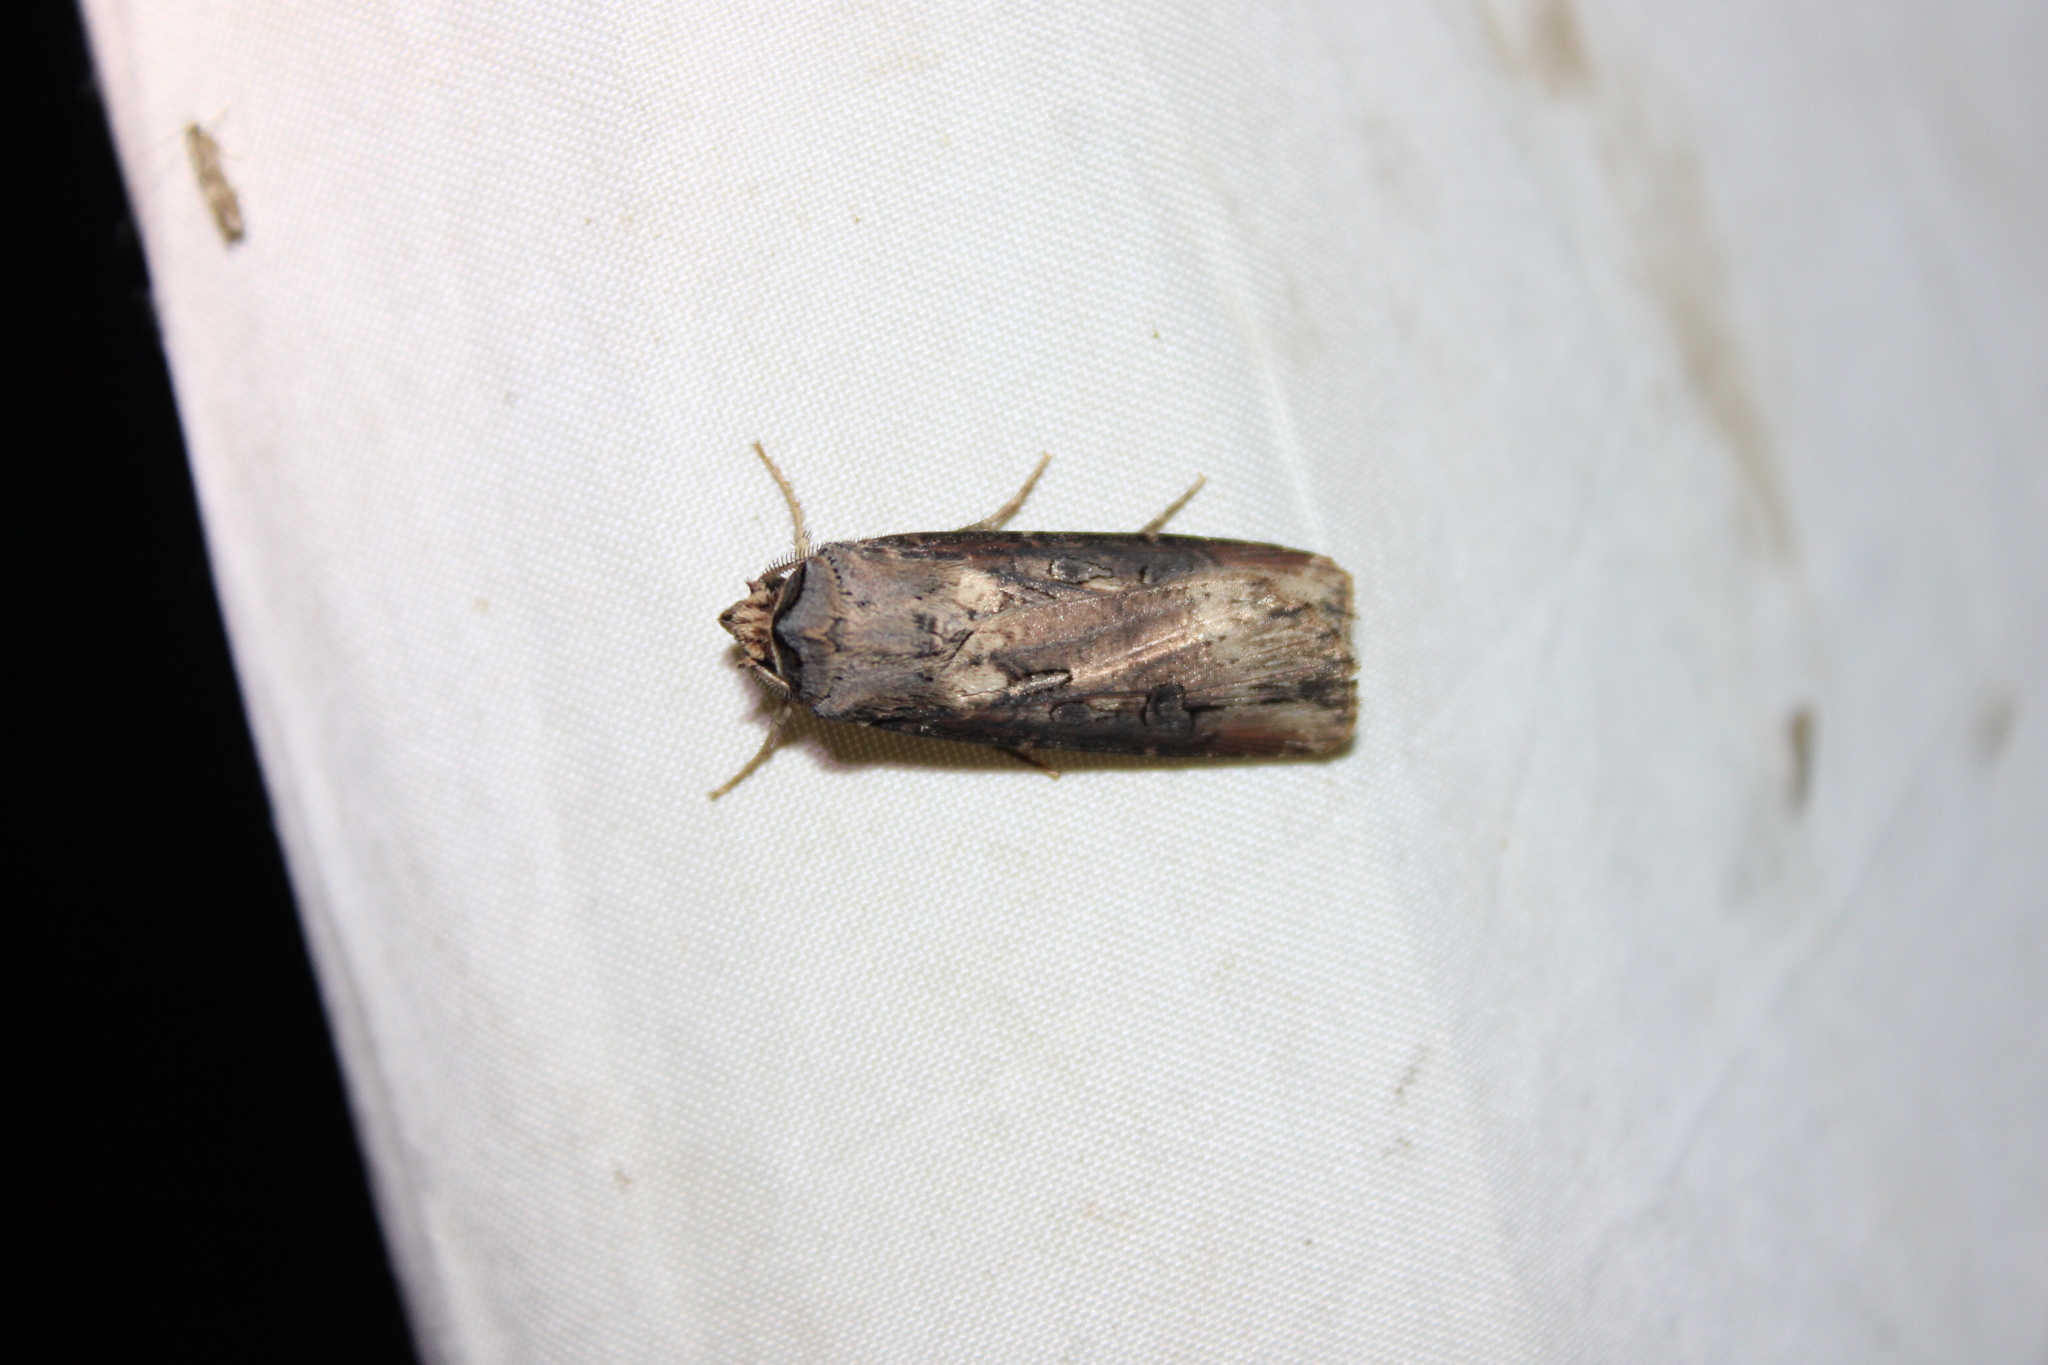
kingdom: Animalia
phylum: Arthropoda
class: Insecta
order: Lepidoptera
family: Noctuidae
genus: Agrotis
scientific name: Agrotis ipsilon
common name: Dark sword-grass
